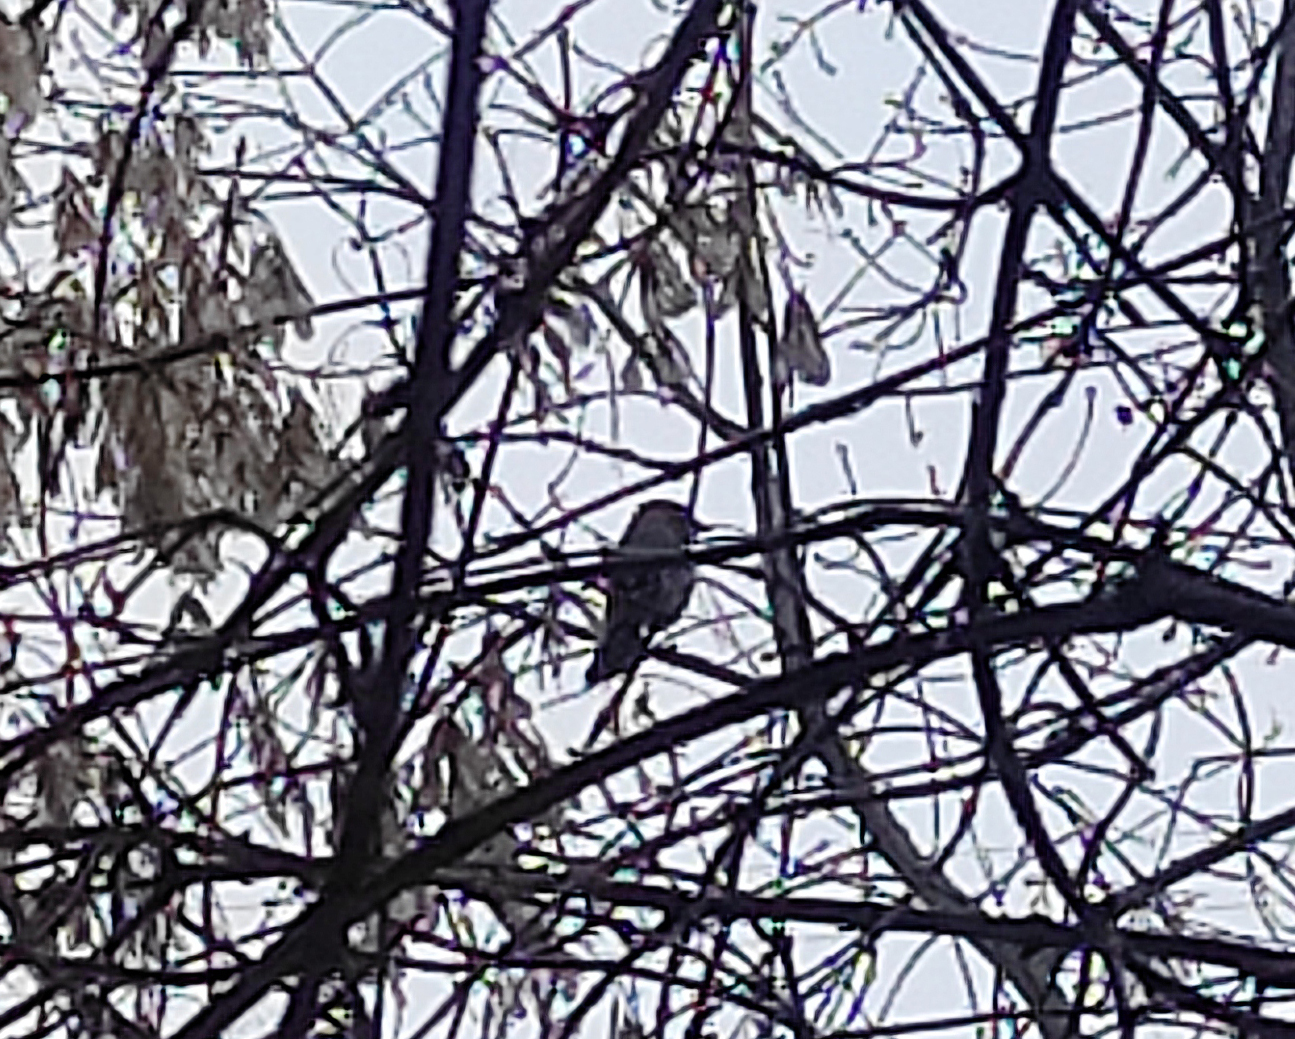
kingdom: Animalia
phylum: Chordata
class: Aves
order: Passeriformes
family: Corvidae
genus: Garrulus
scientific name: Garrulus glandarius
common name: Eurasian jay
